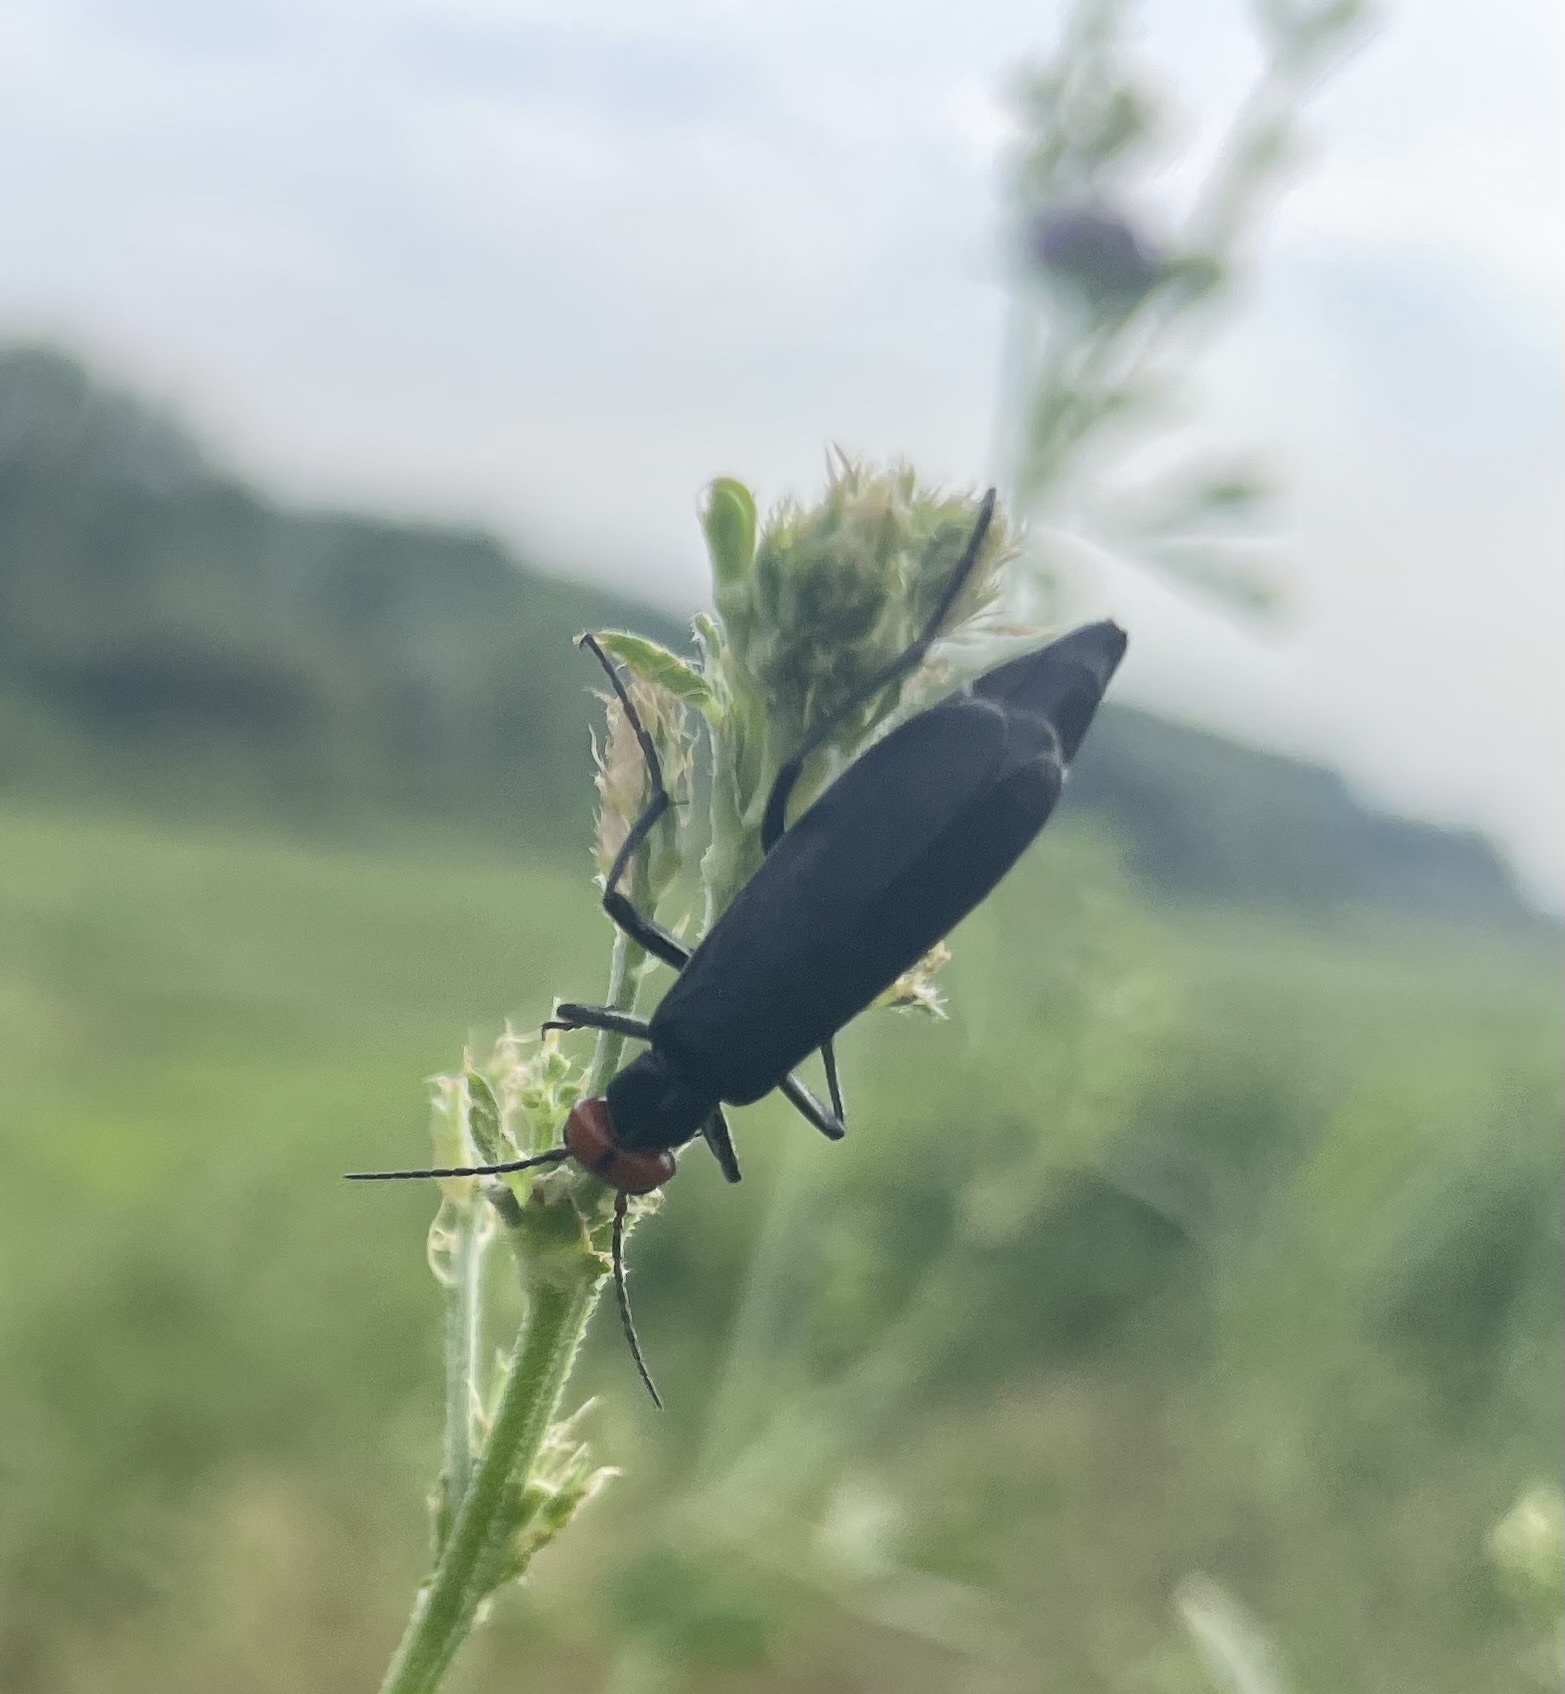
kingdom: Animalia
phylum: Arthropoda
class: Insecta
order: Coleoptera
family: Meloidae
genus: Epicauta
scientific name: Epicauta rufidorsum
